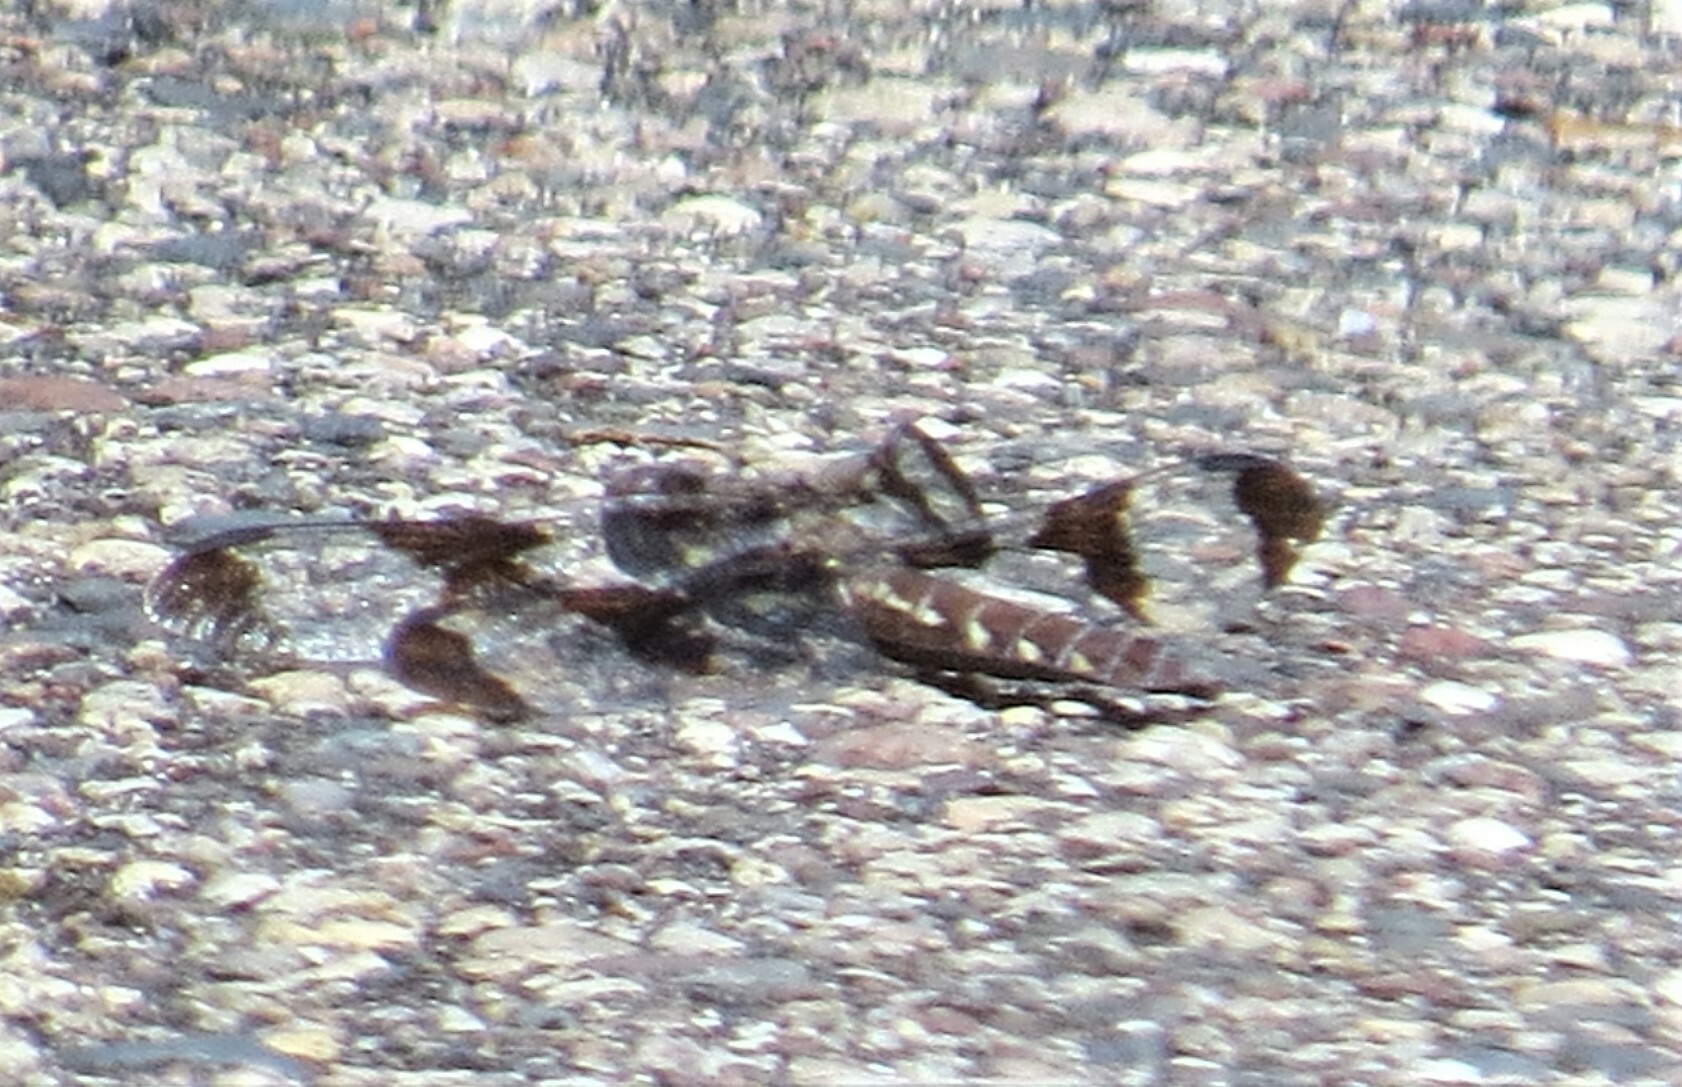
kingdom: Animalia
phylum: Arthropoda
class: Insecta
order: Odonata
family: Libellulidae
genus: Plathemis
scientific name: Plathemis lydia
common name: Common whitetail
